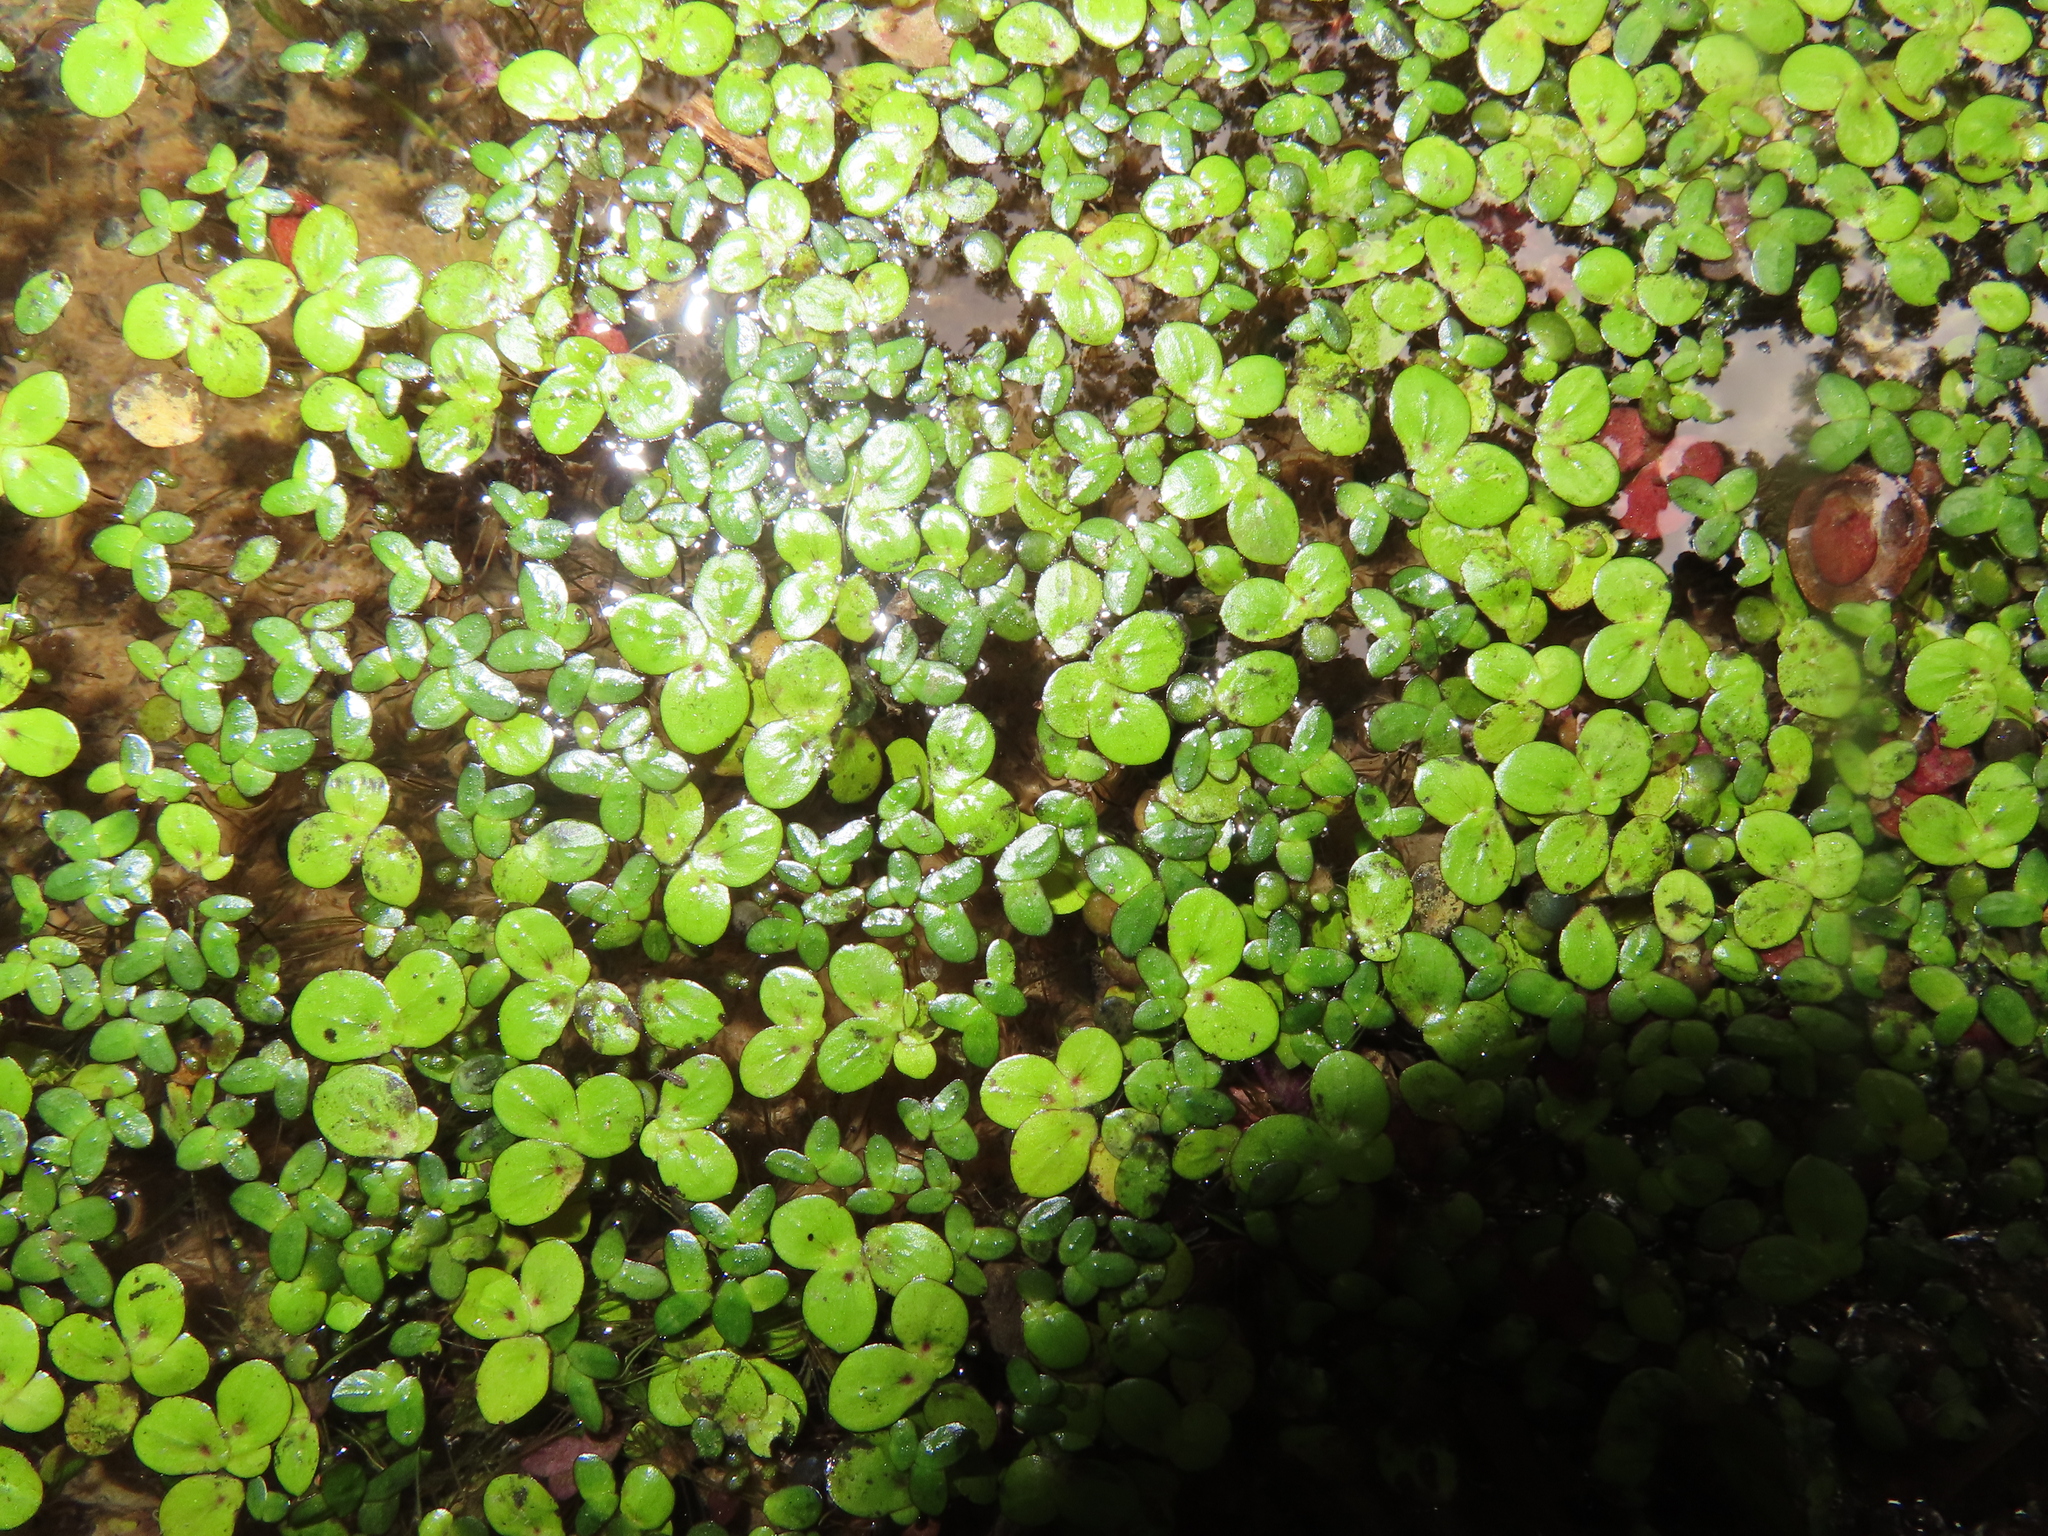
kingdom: Plantae
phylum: Tracheophyta
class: Liliopsida
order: Alismatales
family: Araceae
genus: Spirodela
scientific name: Spirodela polyrhiza
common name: Great duckweed
